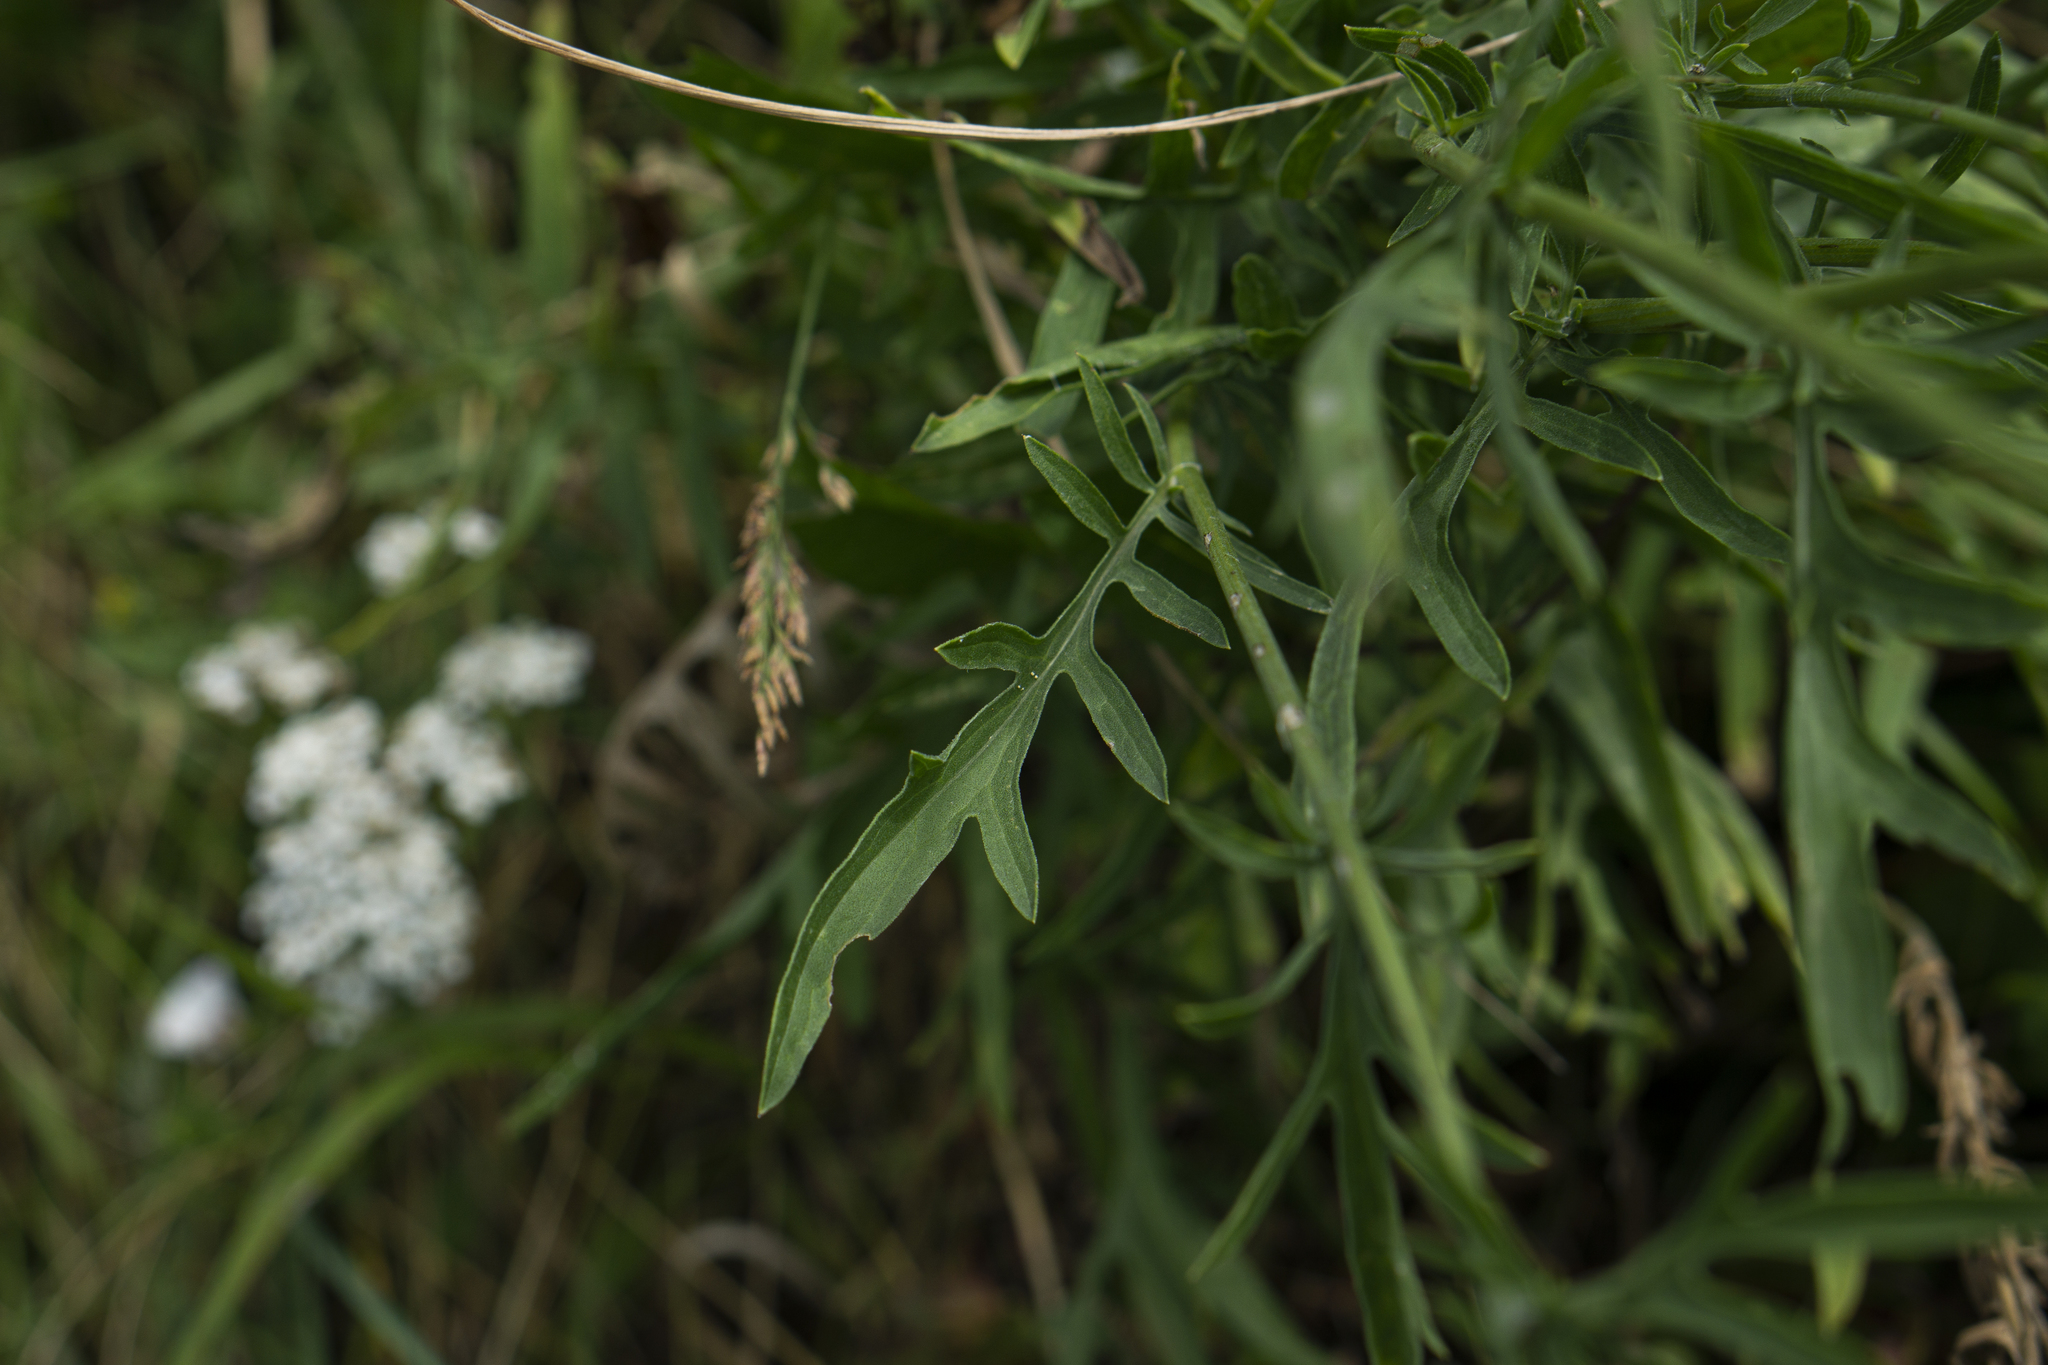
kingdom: Plantae
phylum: Tracheophyta
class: Magnoliopsida
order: Asterales
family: Asteraceae
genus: Centaurea
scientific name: Centaurea apiculata
